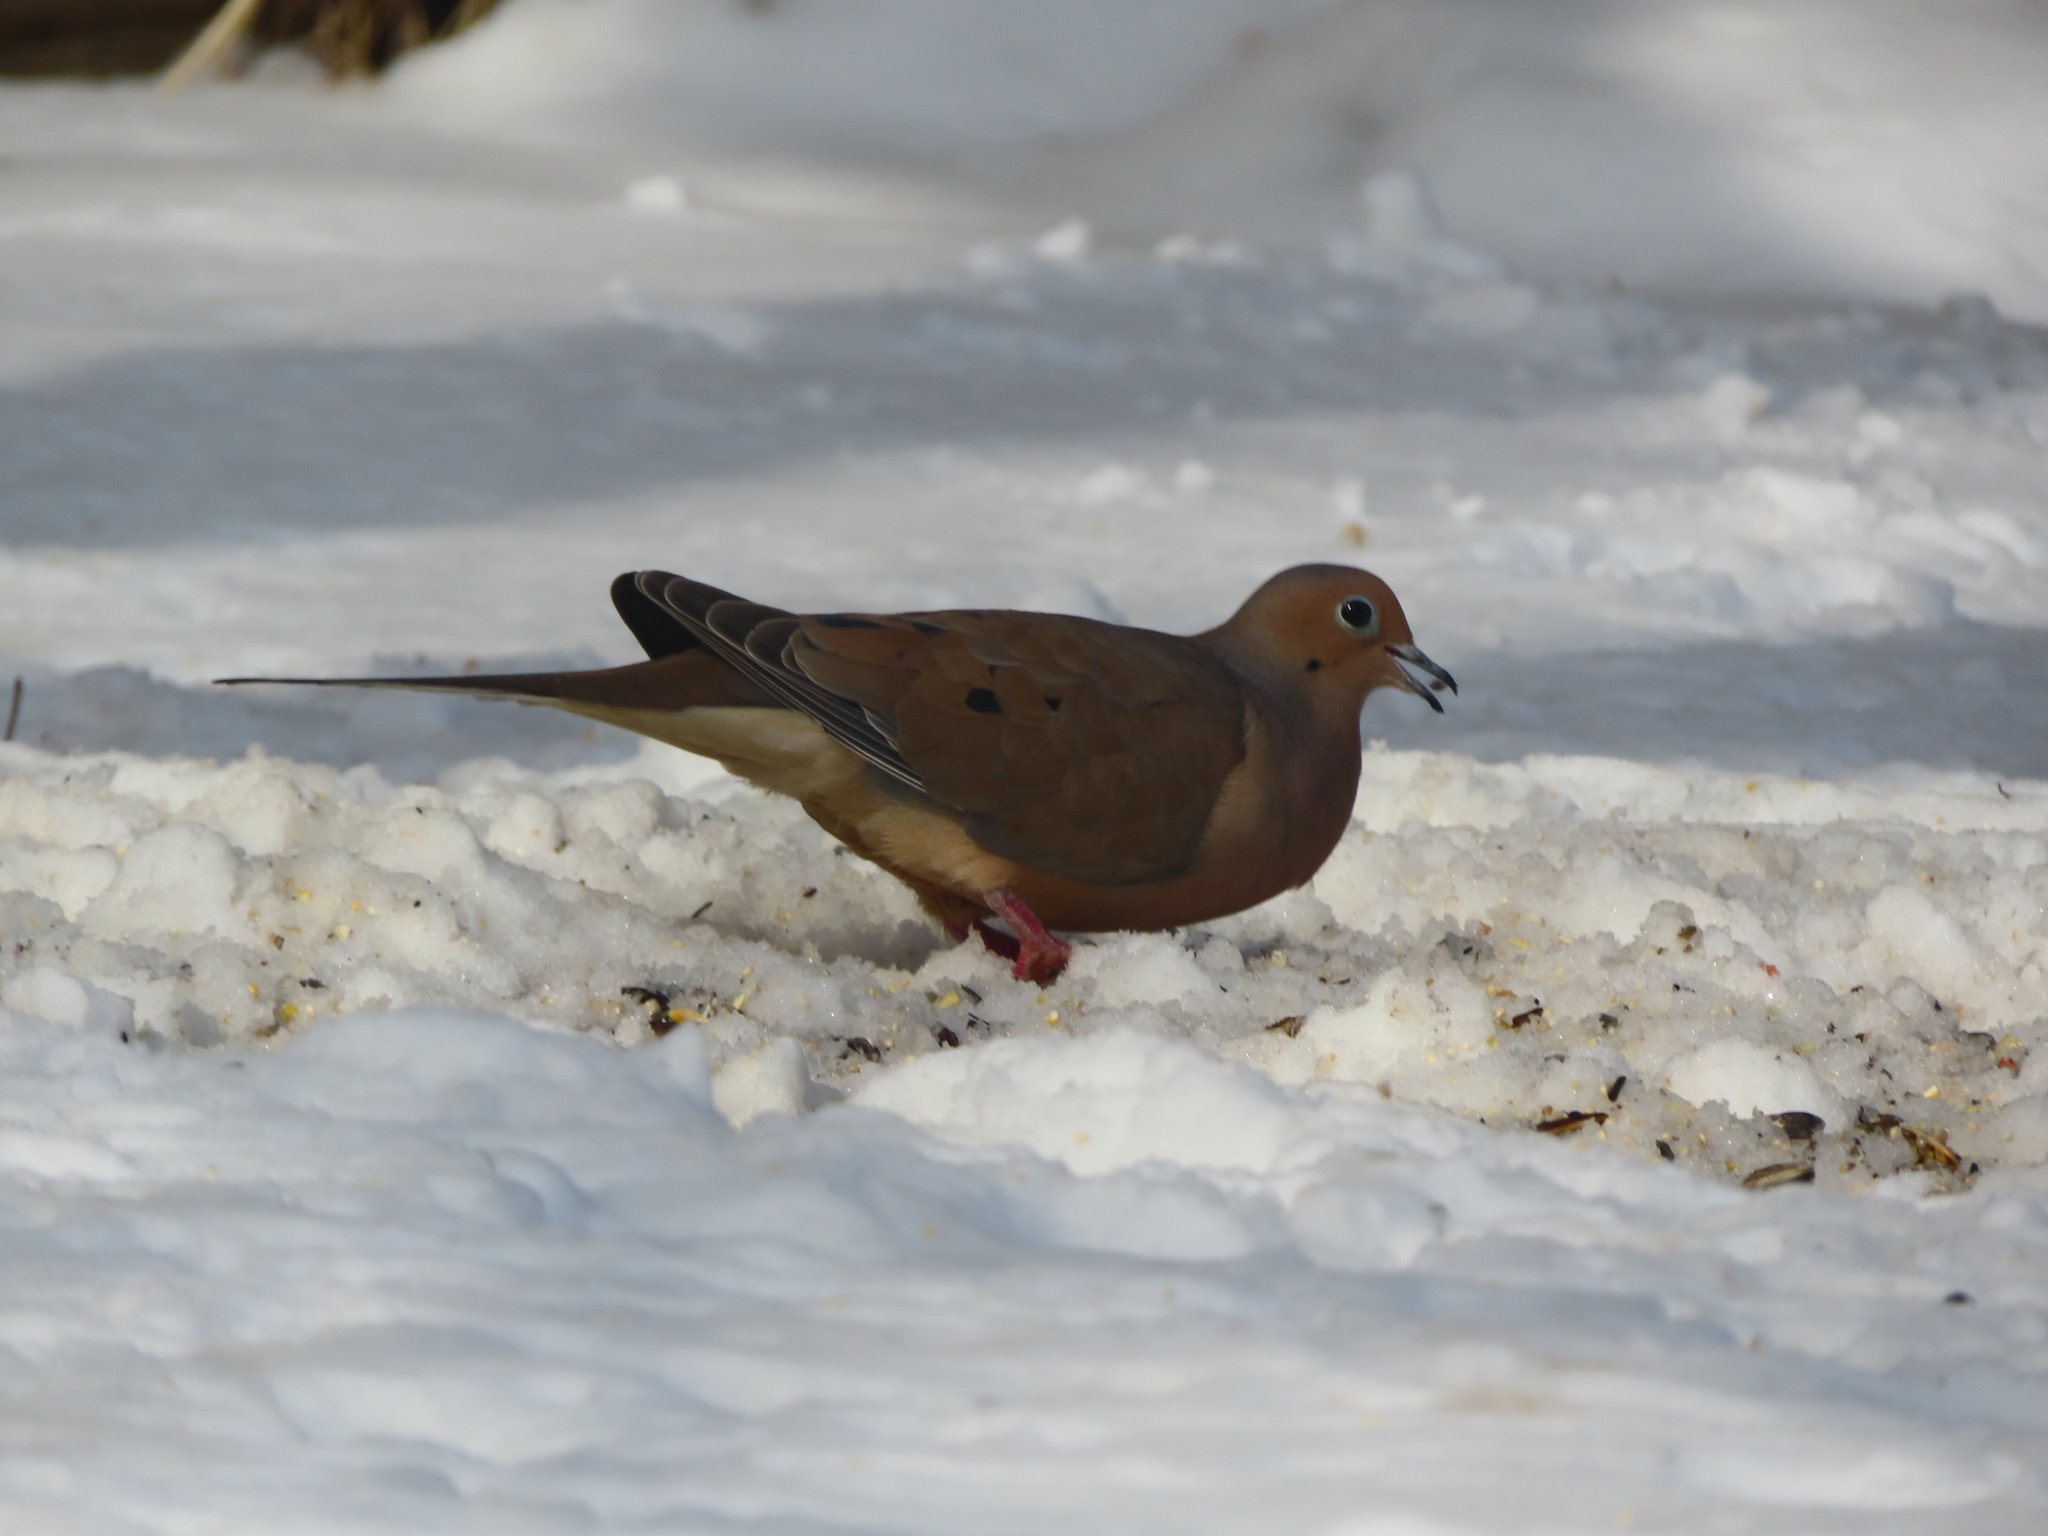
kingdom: Animalia
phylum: Chordata
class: Aves
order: Columbiformes
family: Columbidae
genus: Zenaida
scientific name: Zenaida macroura
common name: Mourning dove
